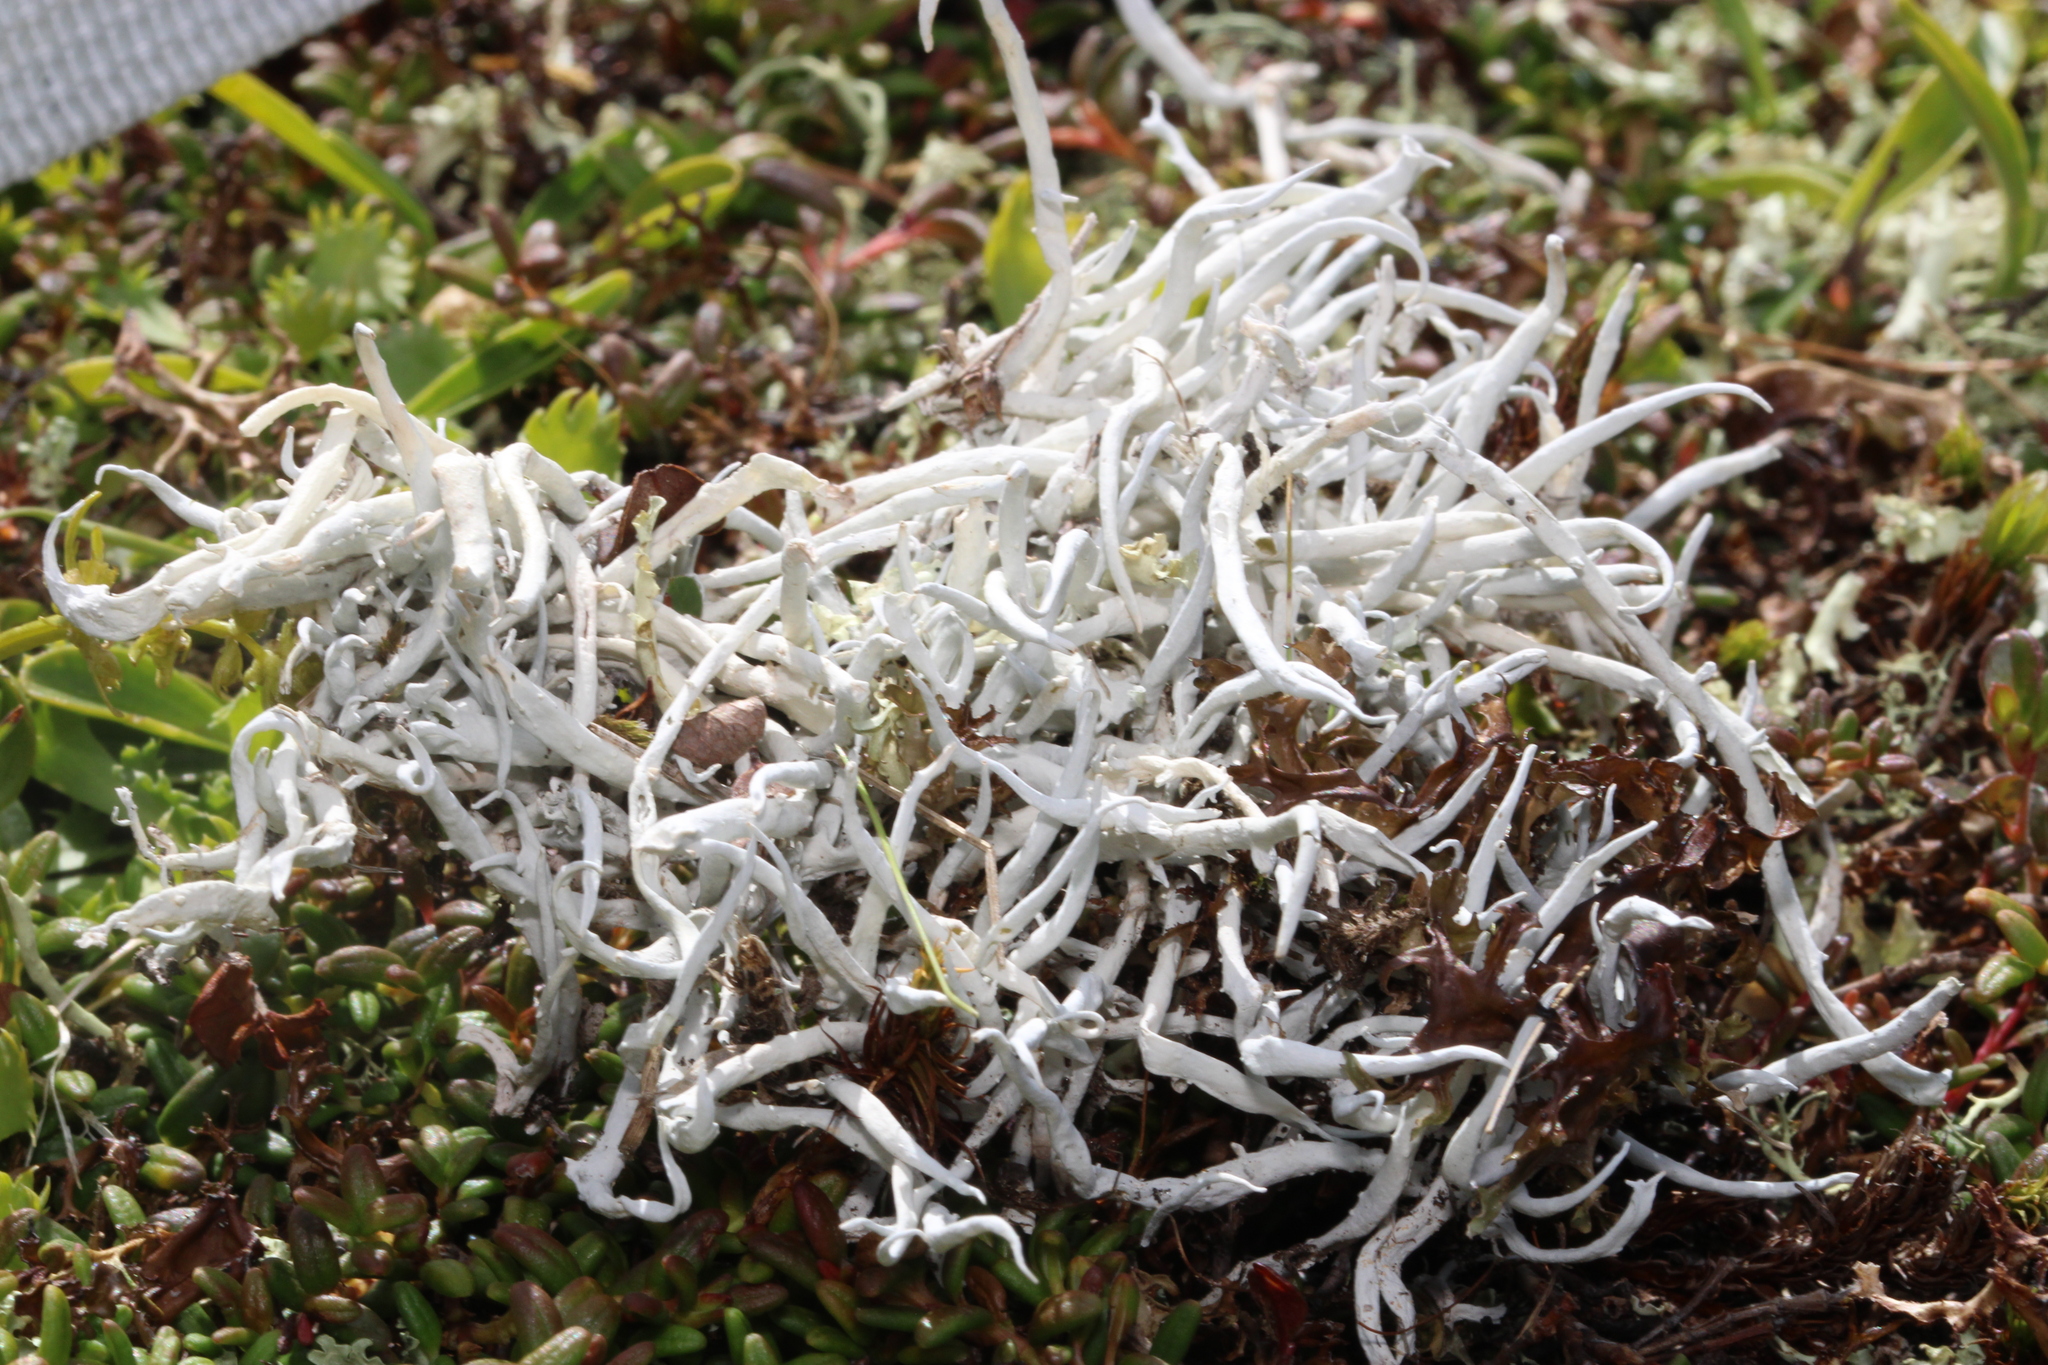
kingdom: Fungi
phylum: Ascomycota
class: Lecanoromycetes
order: Pertusariales
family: Icmadophilaceae
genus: Thamnolia
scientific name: Thamnolia vermicularis
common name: Whiteworm lichen
